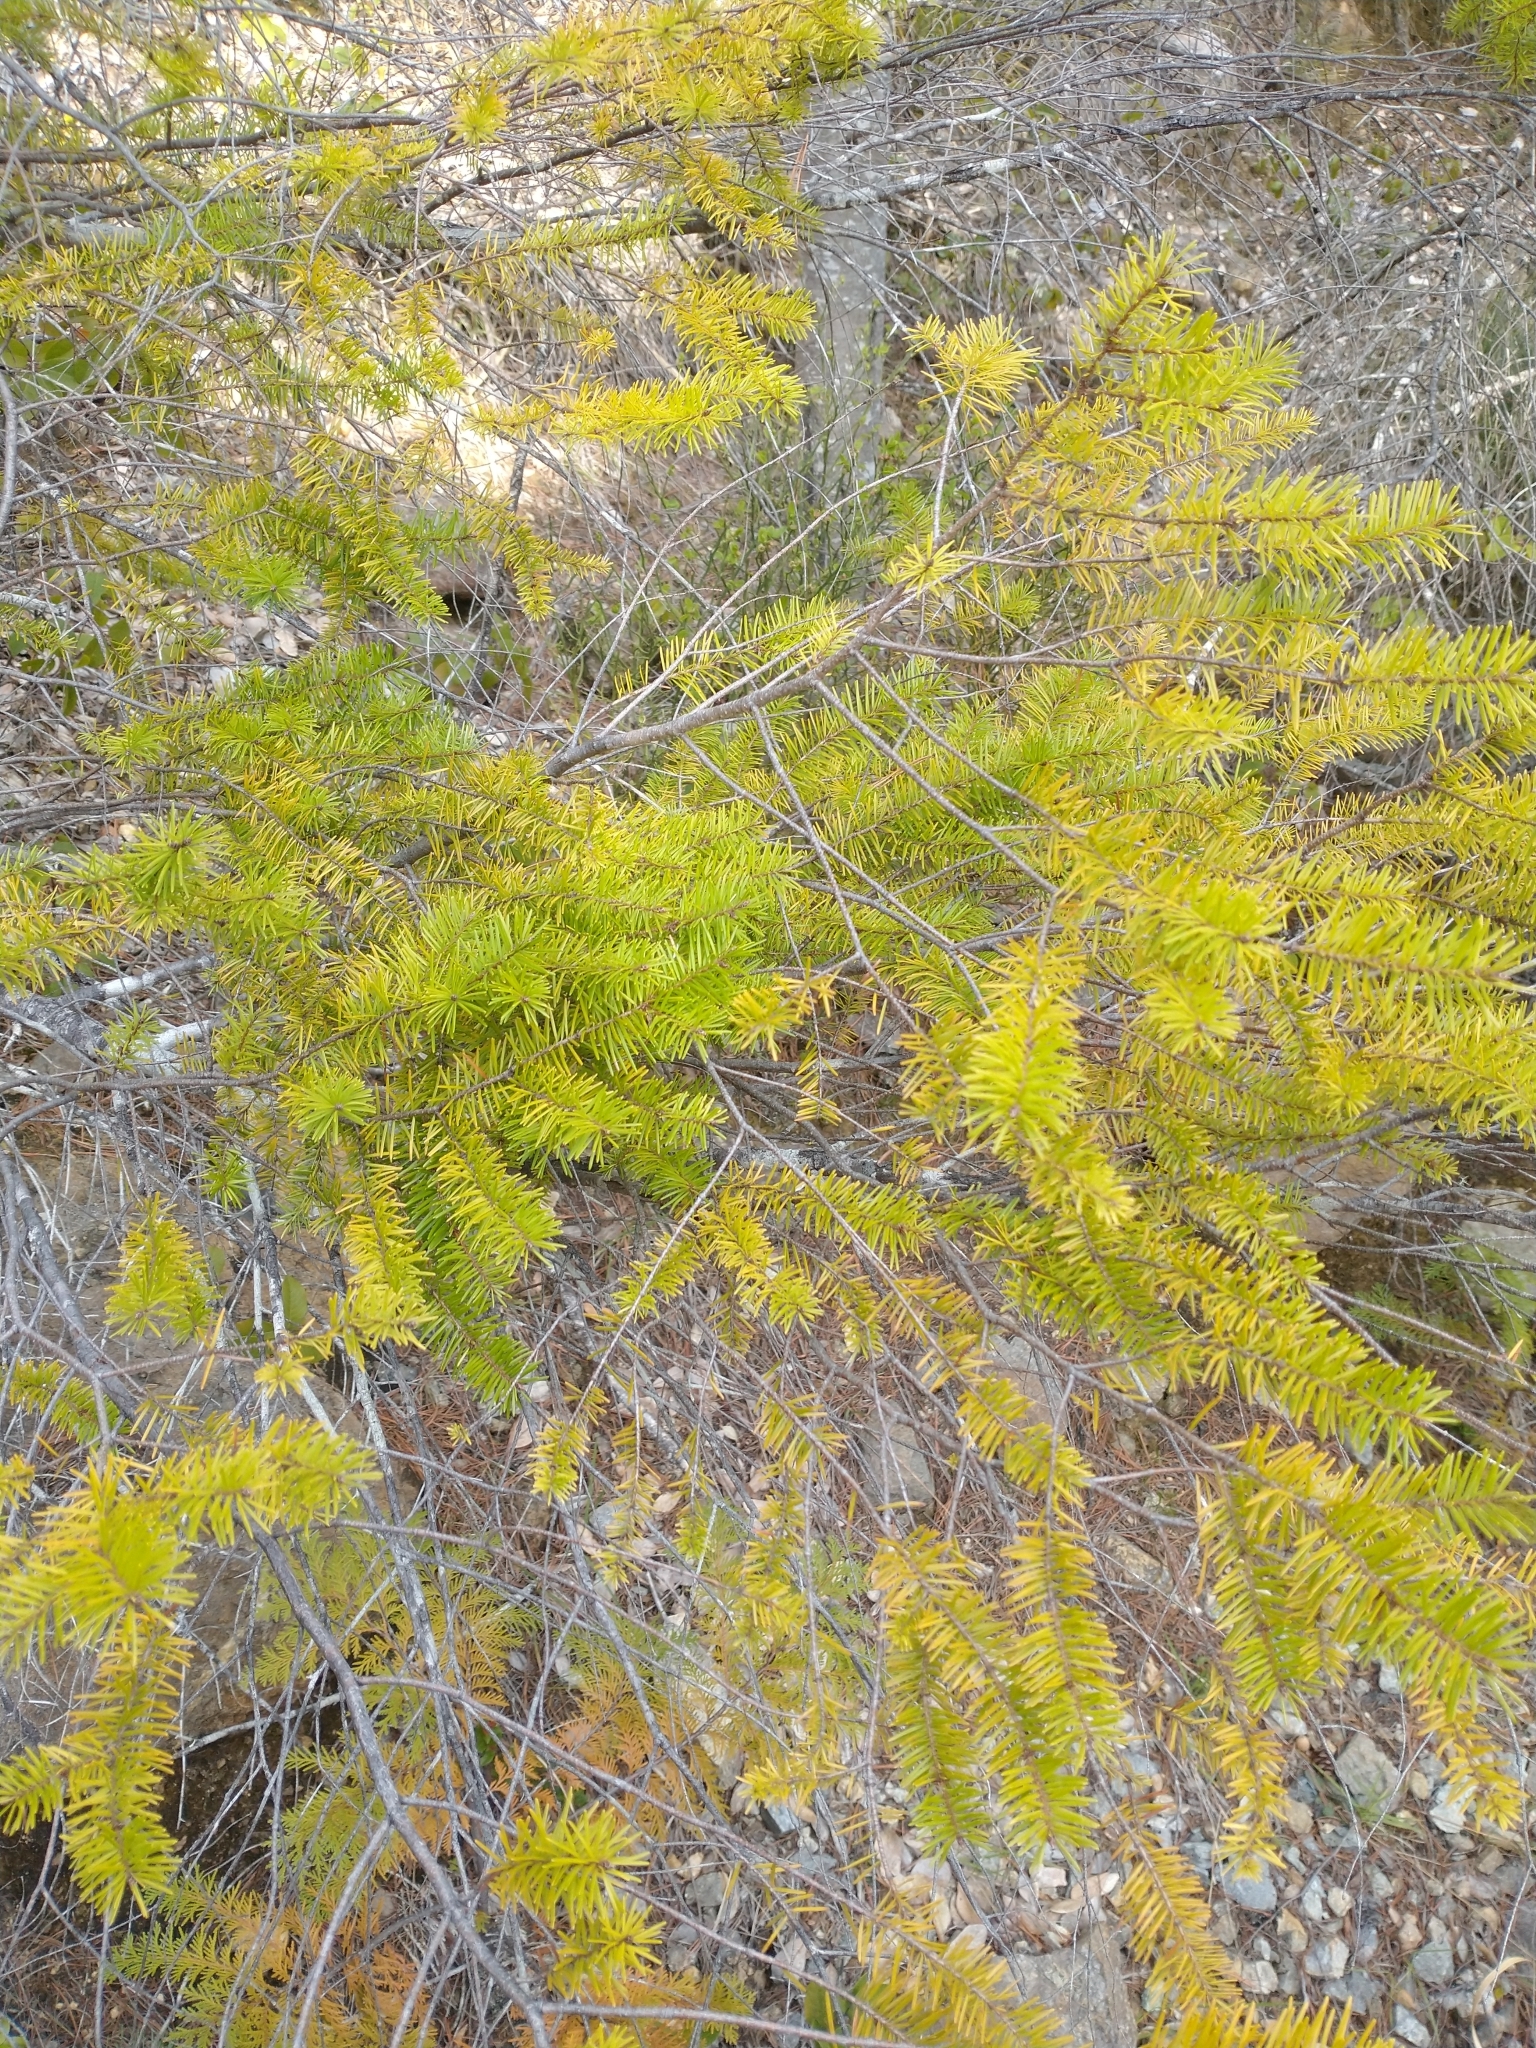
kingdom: Plantae
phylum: Tracheophyta
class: Pinopsida
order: Pinales
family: Pinaceae
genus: Pseudotsuga
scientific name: Pseudotsuga menziesii
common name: Douglas fir
